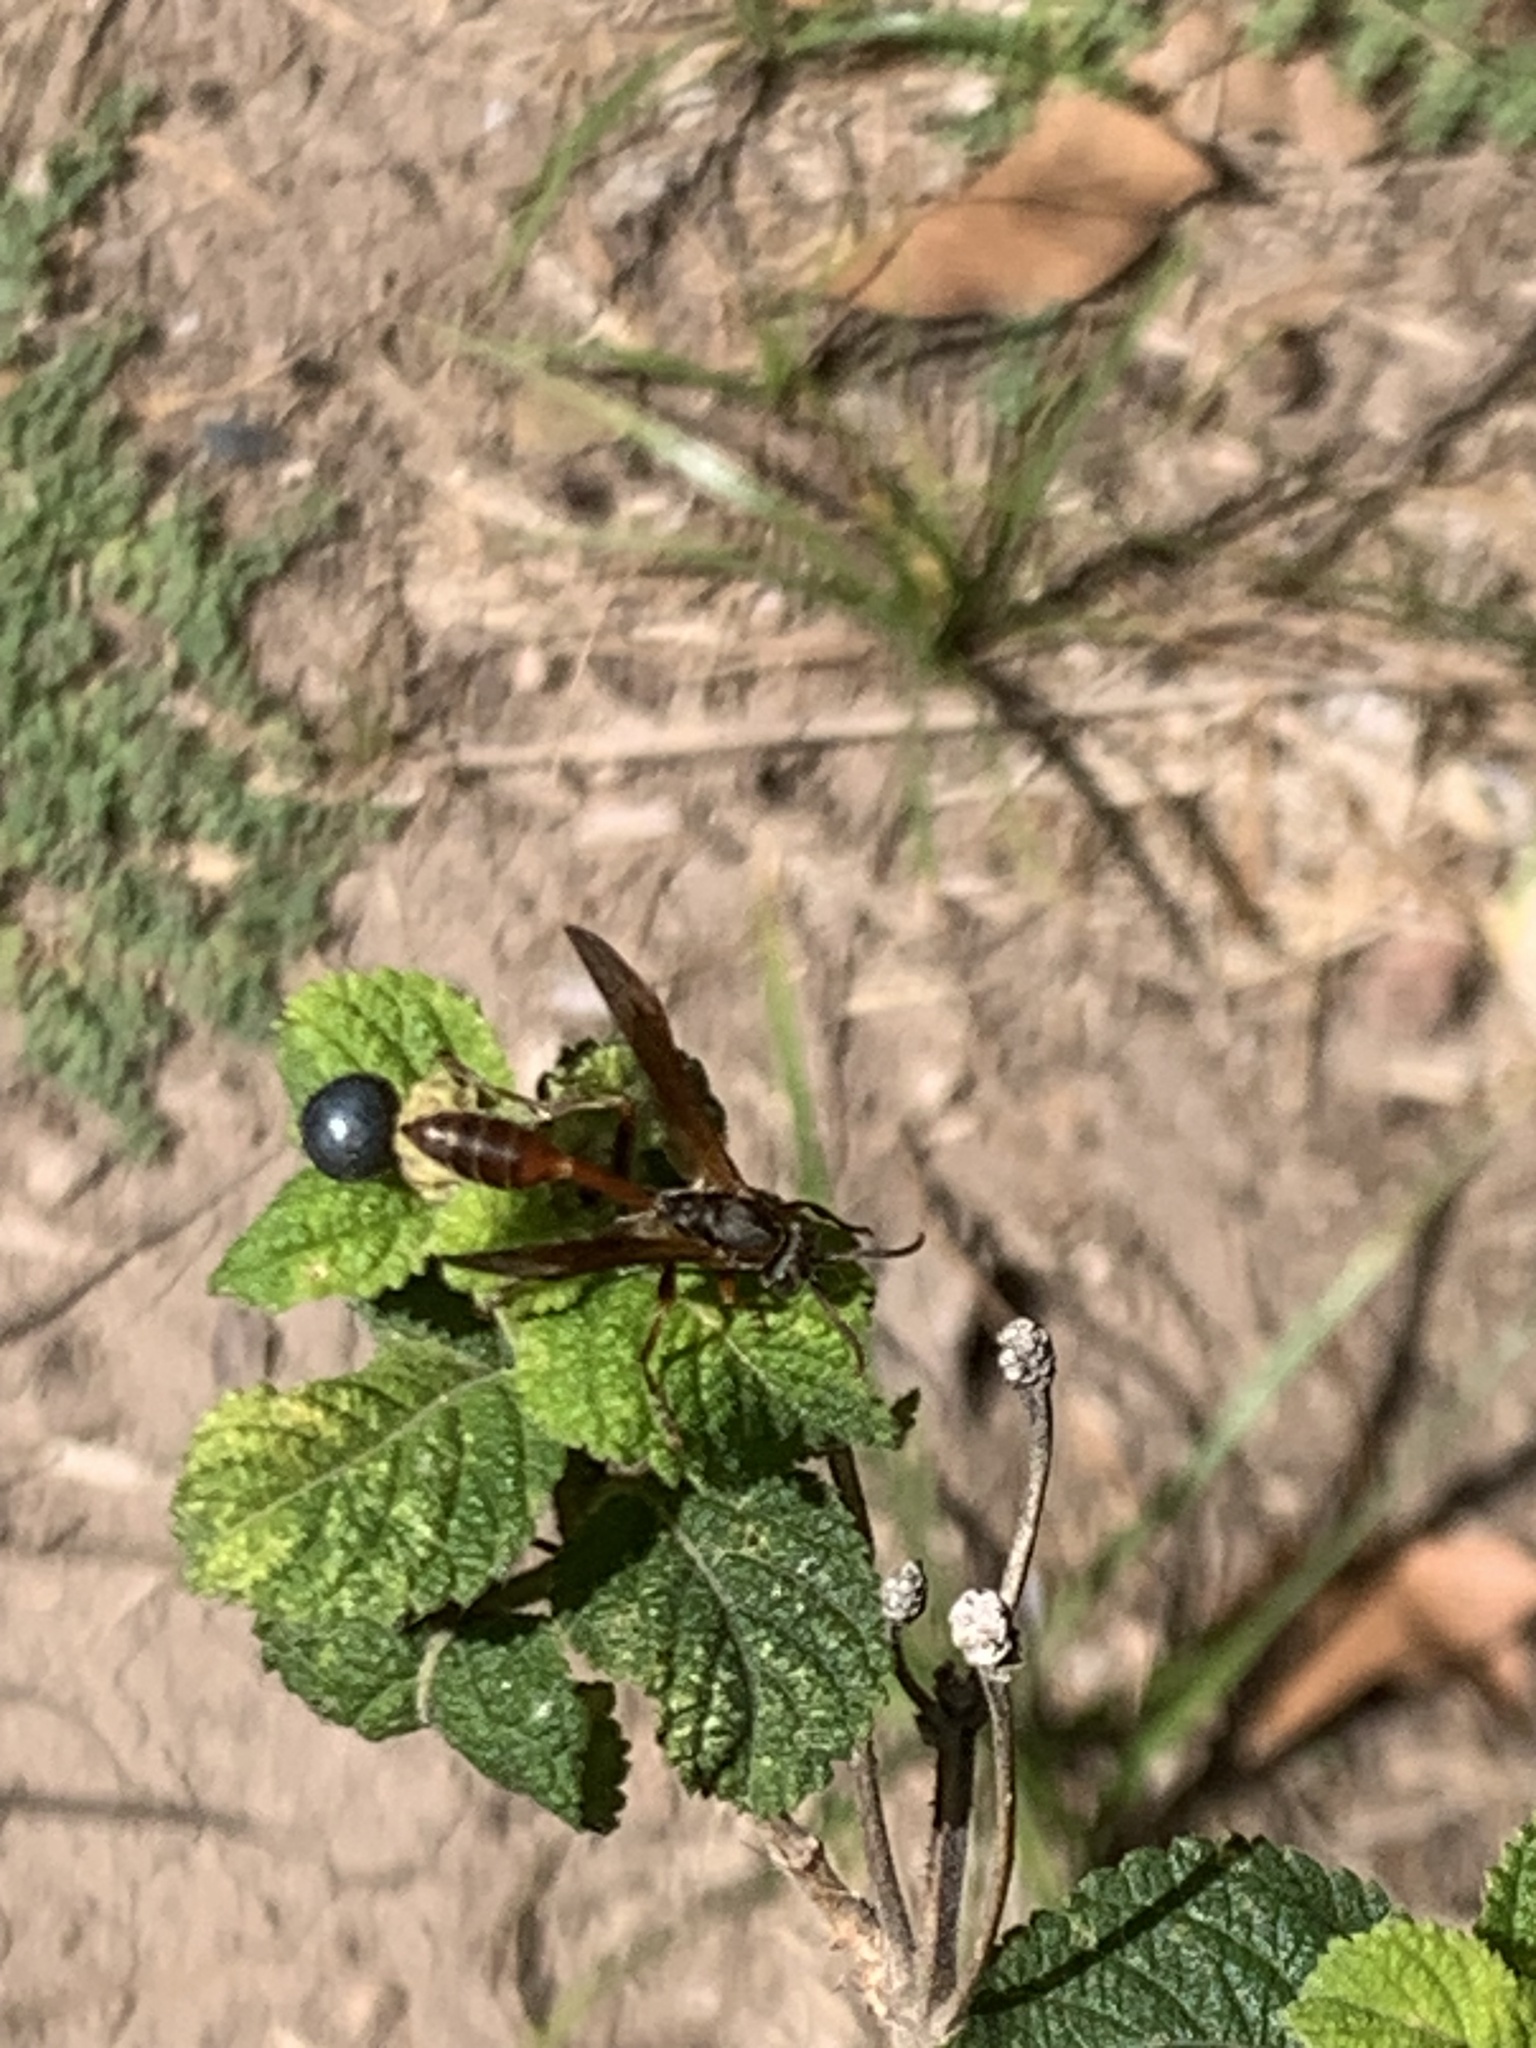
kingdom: Animalia
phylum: Arthropoda
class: Insecta
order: Hymenoptera
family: Vespidae
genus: Mischocyttarus
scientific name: Mischocyttarus drewseni
